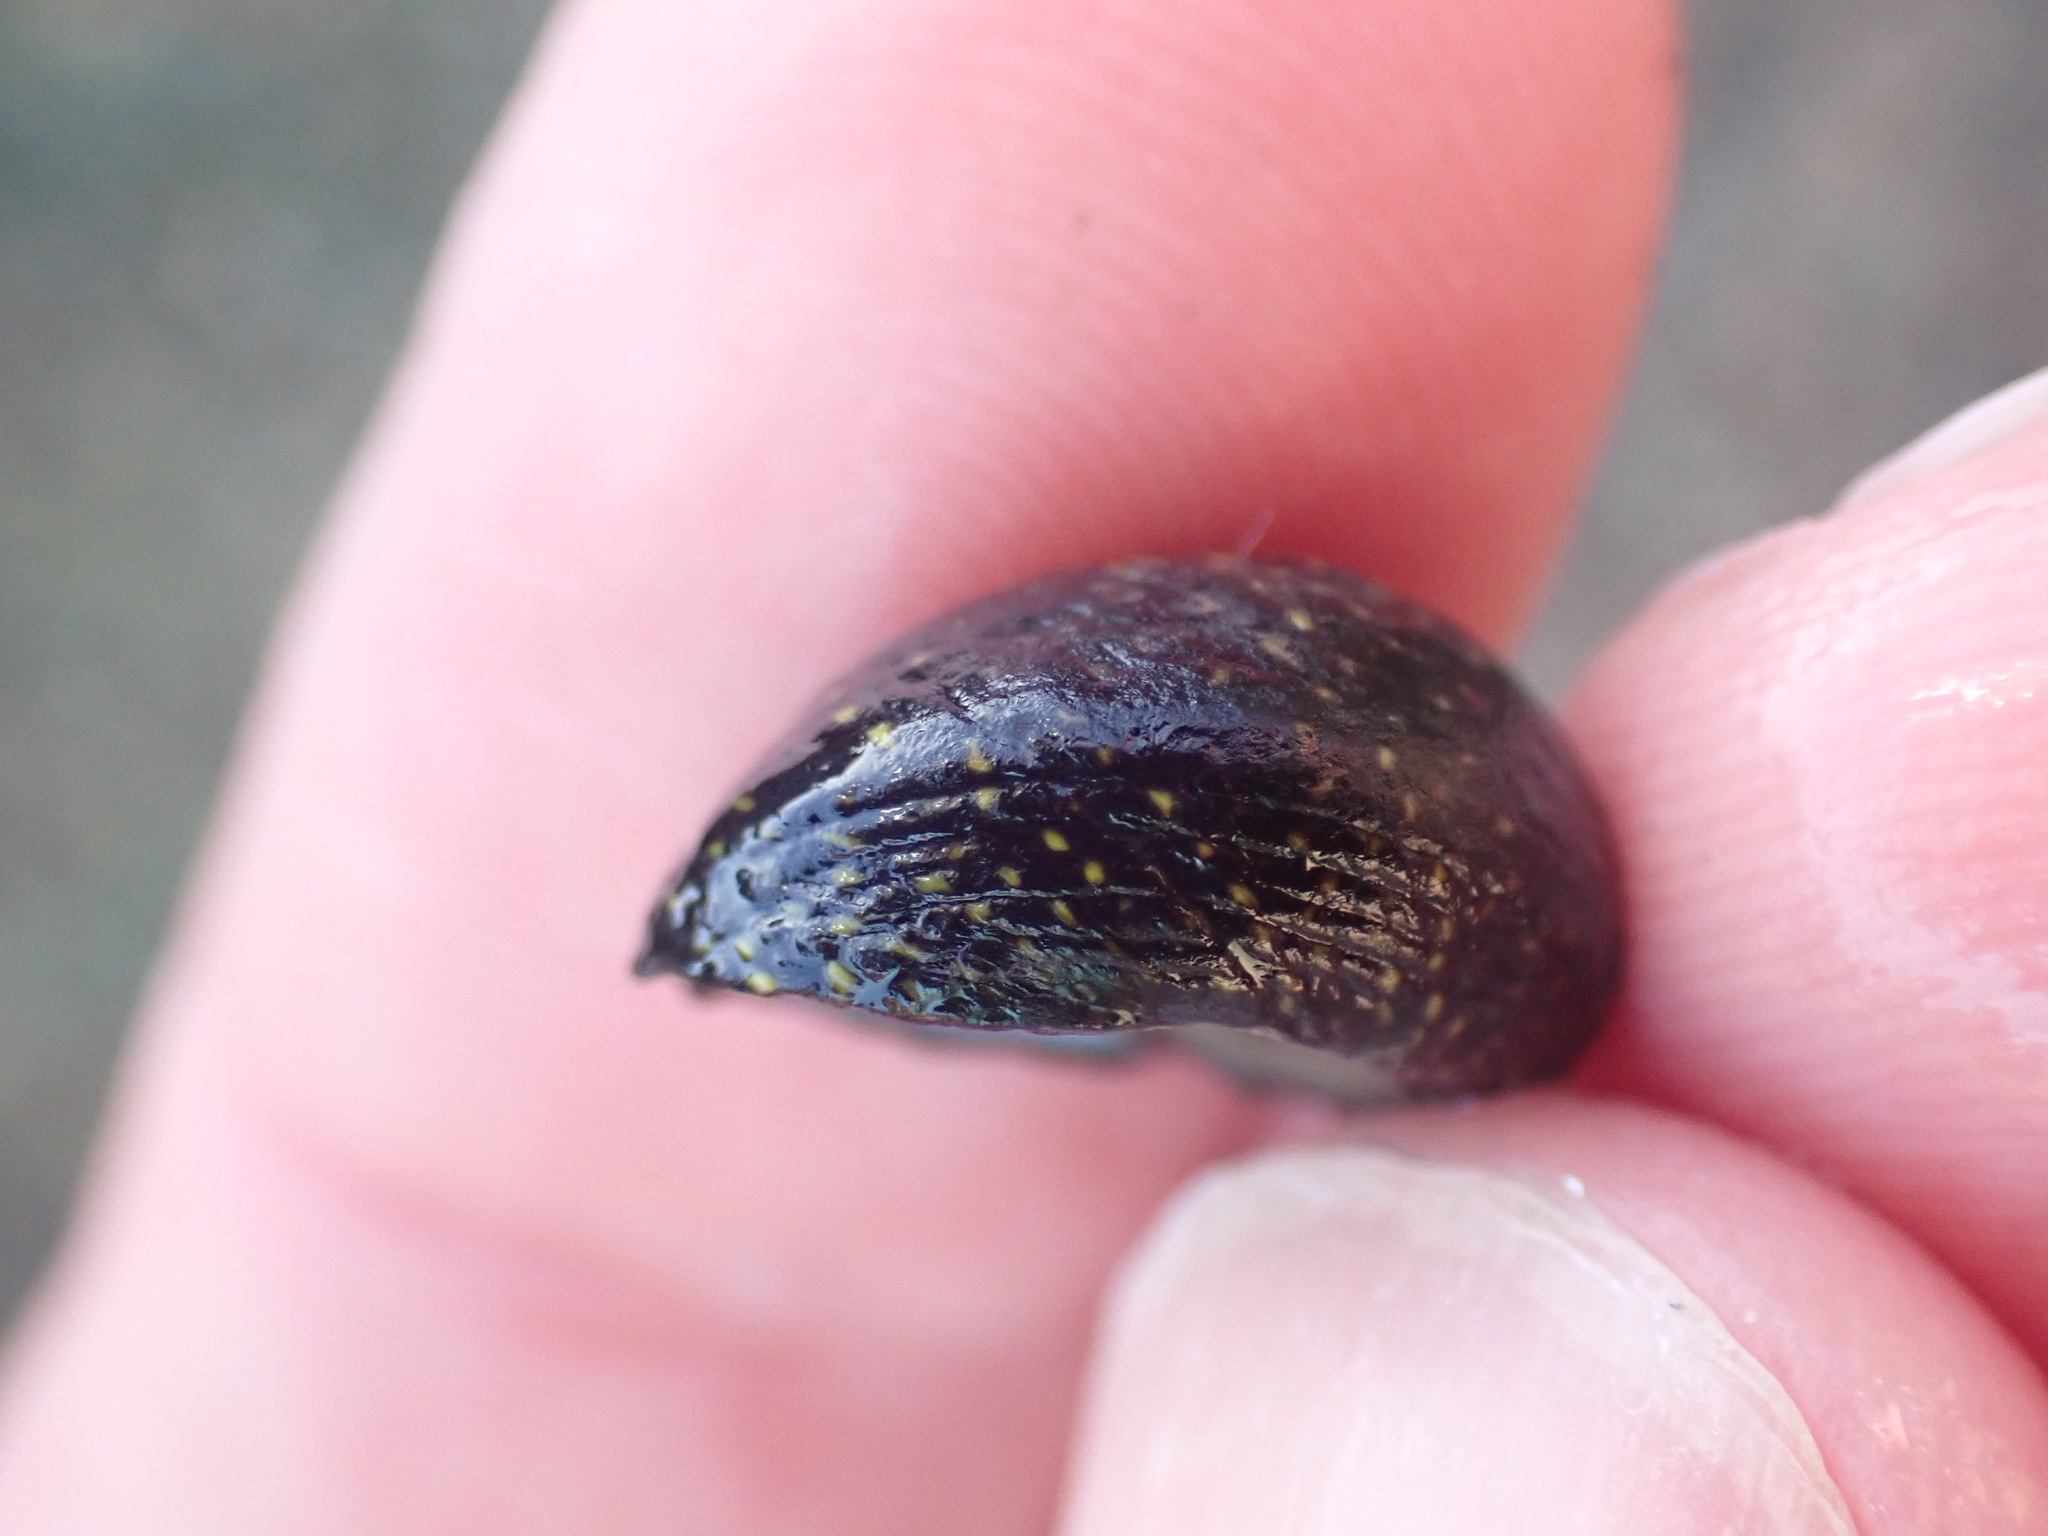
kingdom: Animalia
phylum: Mollusca
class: Gastropoda
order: Trochida
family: Trochidae
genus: Diloma
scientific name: Diloma aridum
